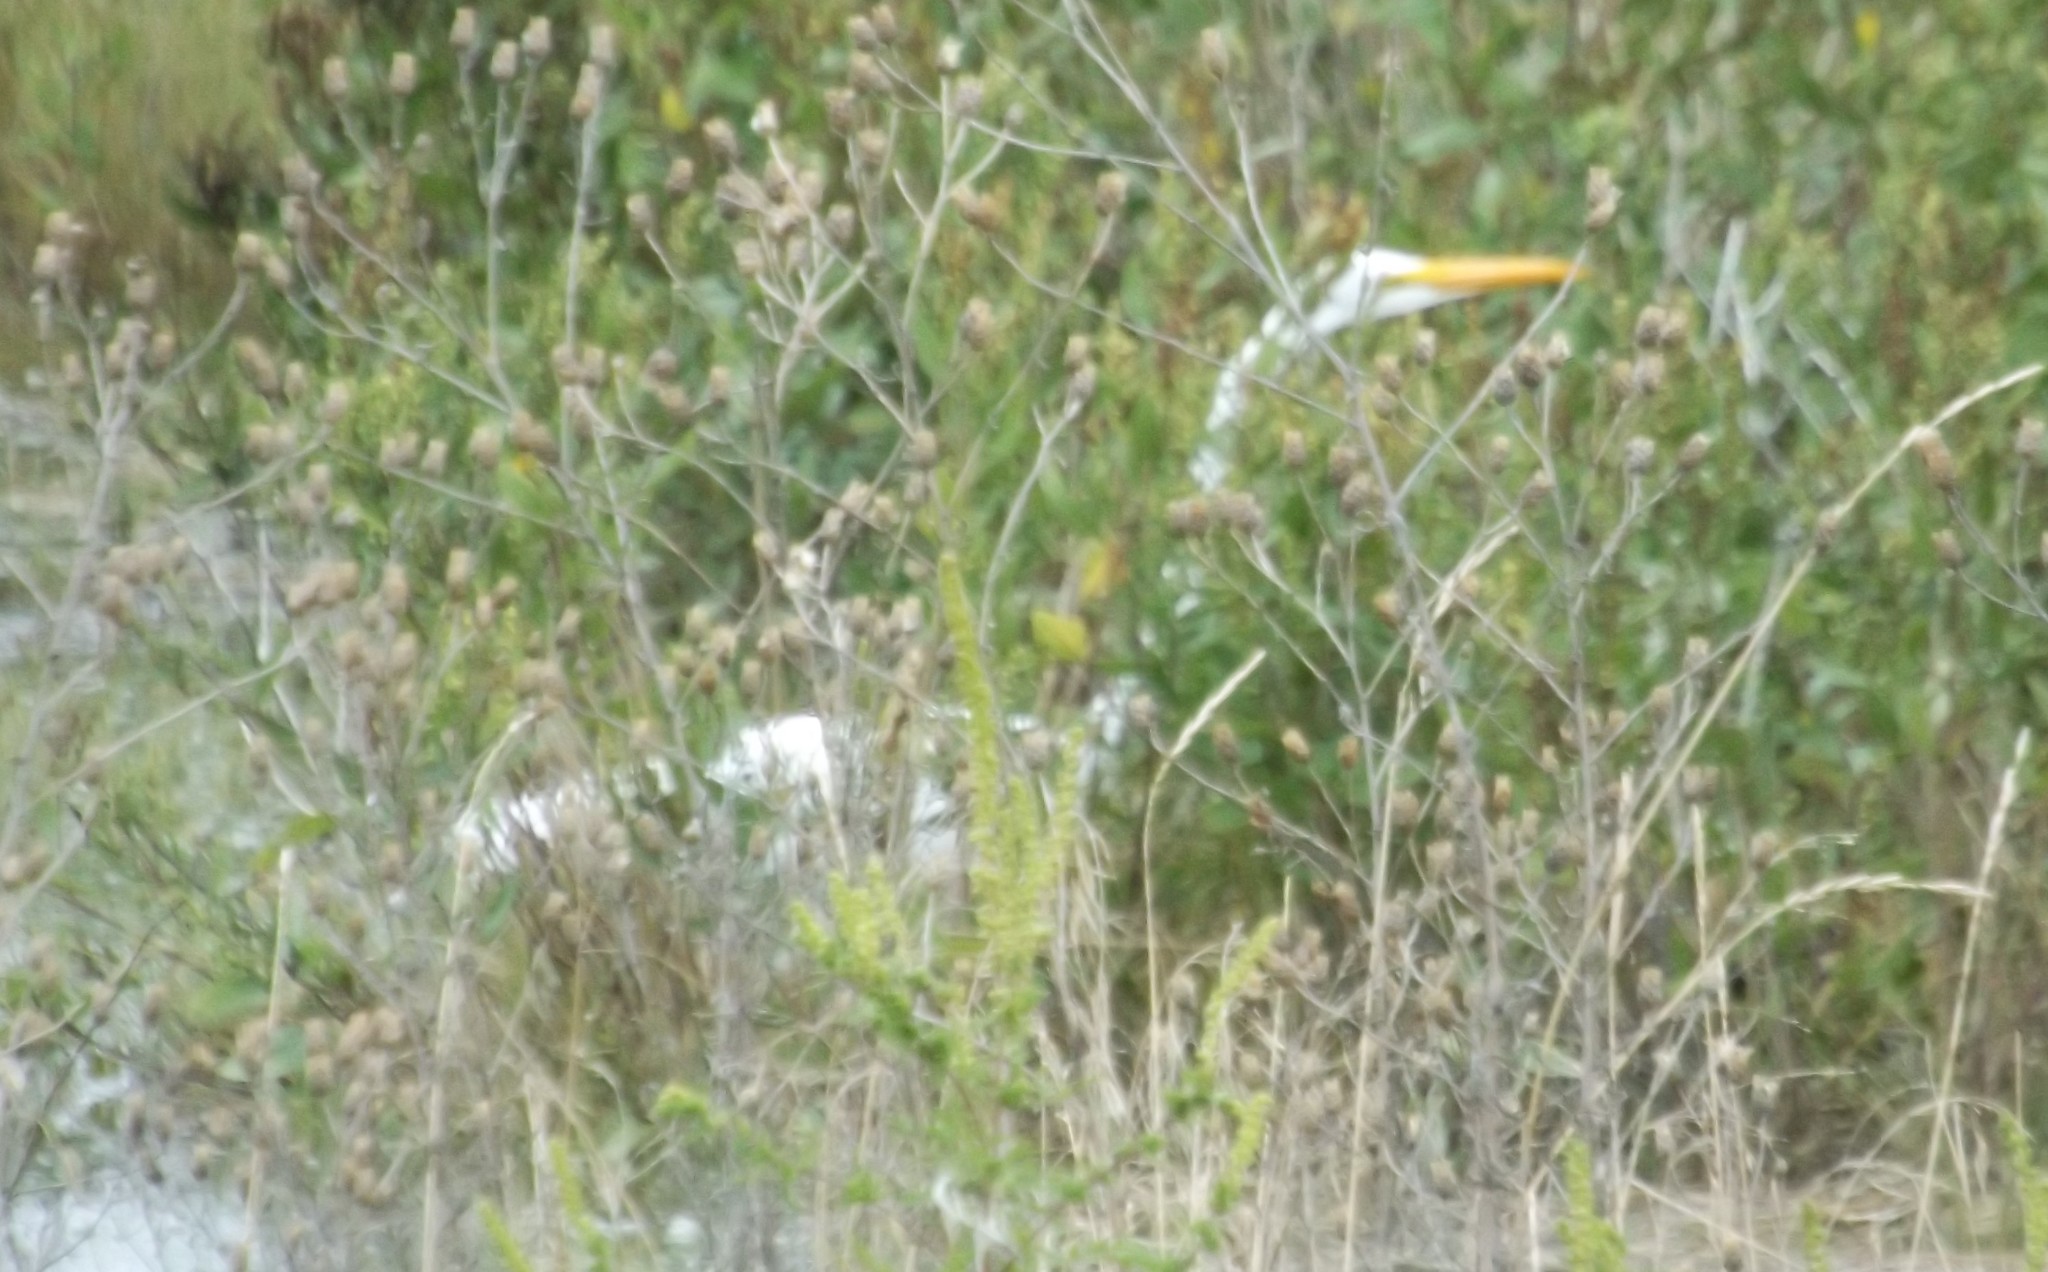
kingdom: Animalia
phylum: Chordata
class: Aves
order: Pelecaniformes
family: Ardeidae
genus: Ardea
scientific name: Ardea alba
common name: Great egret
